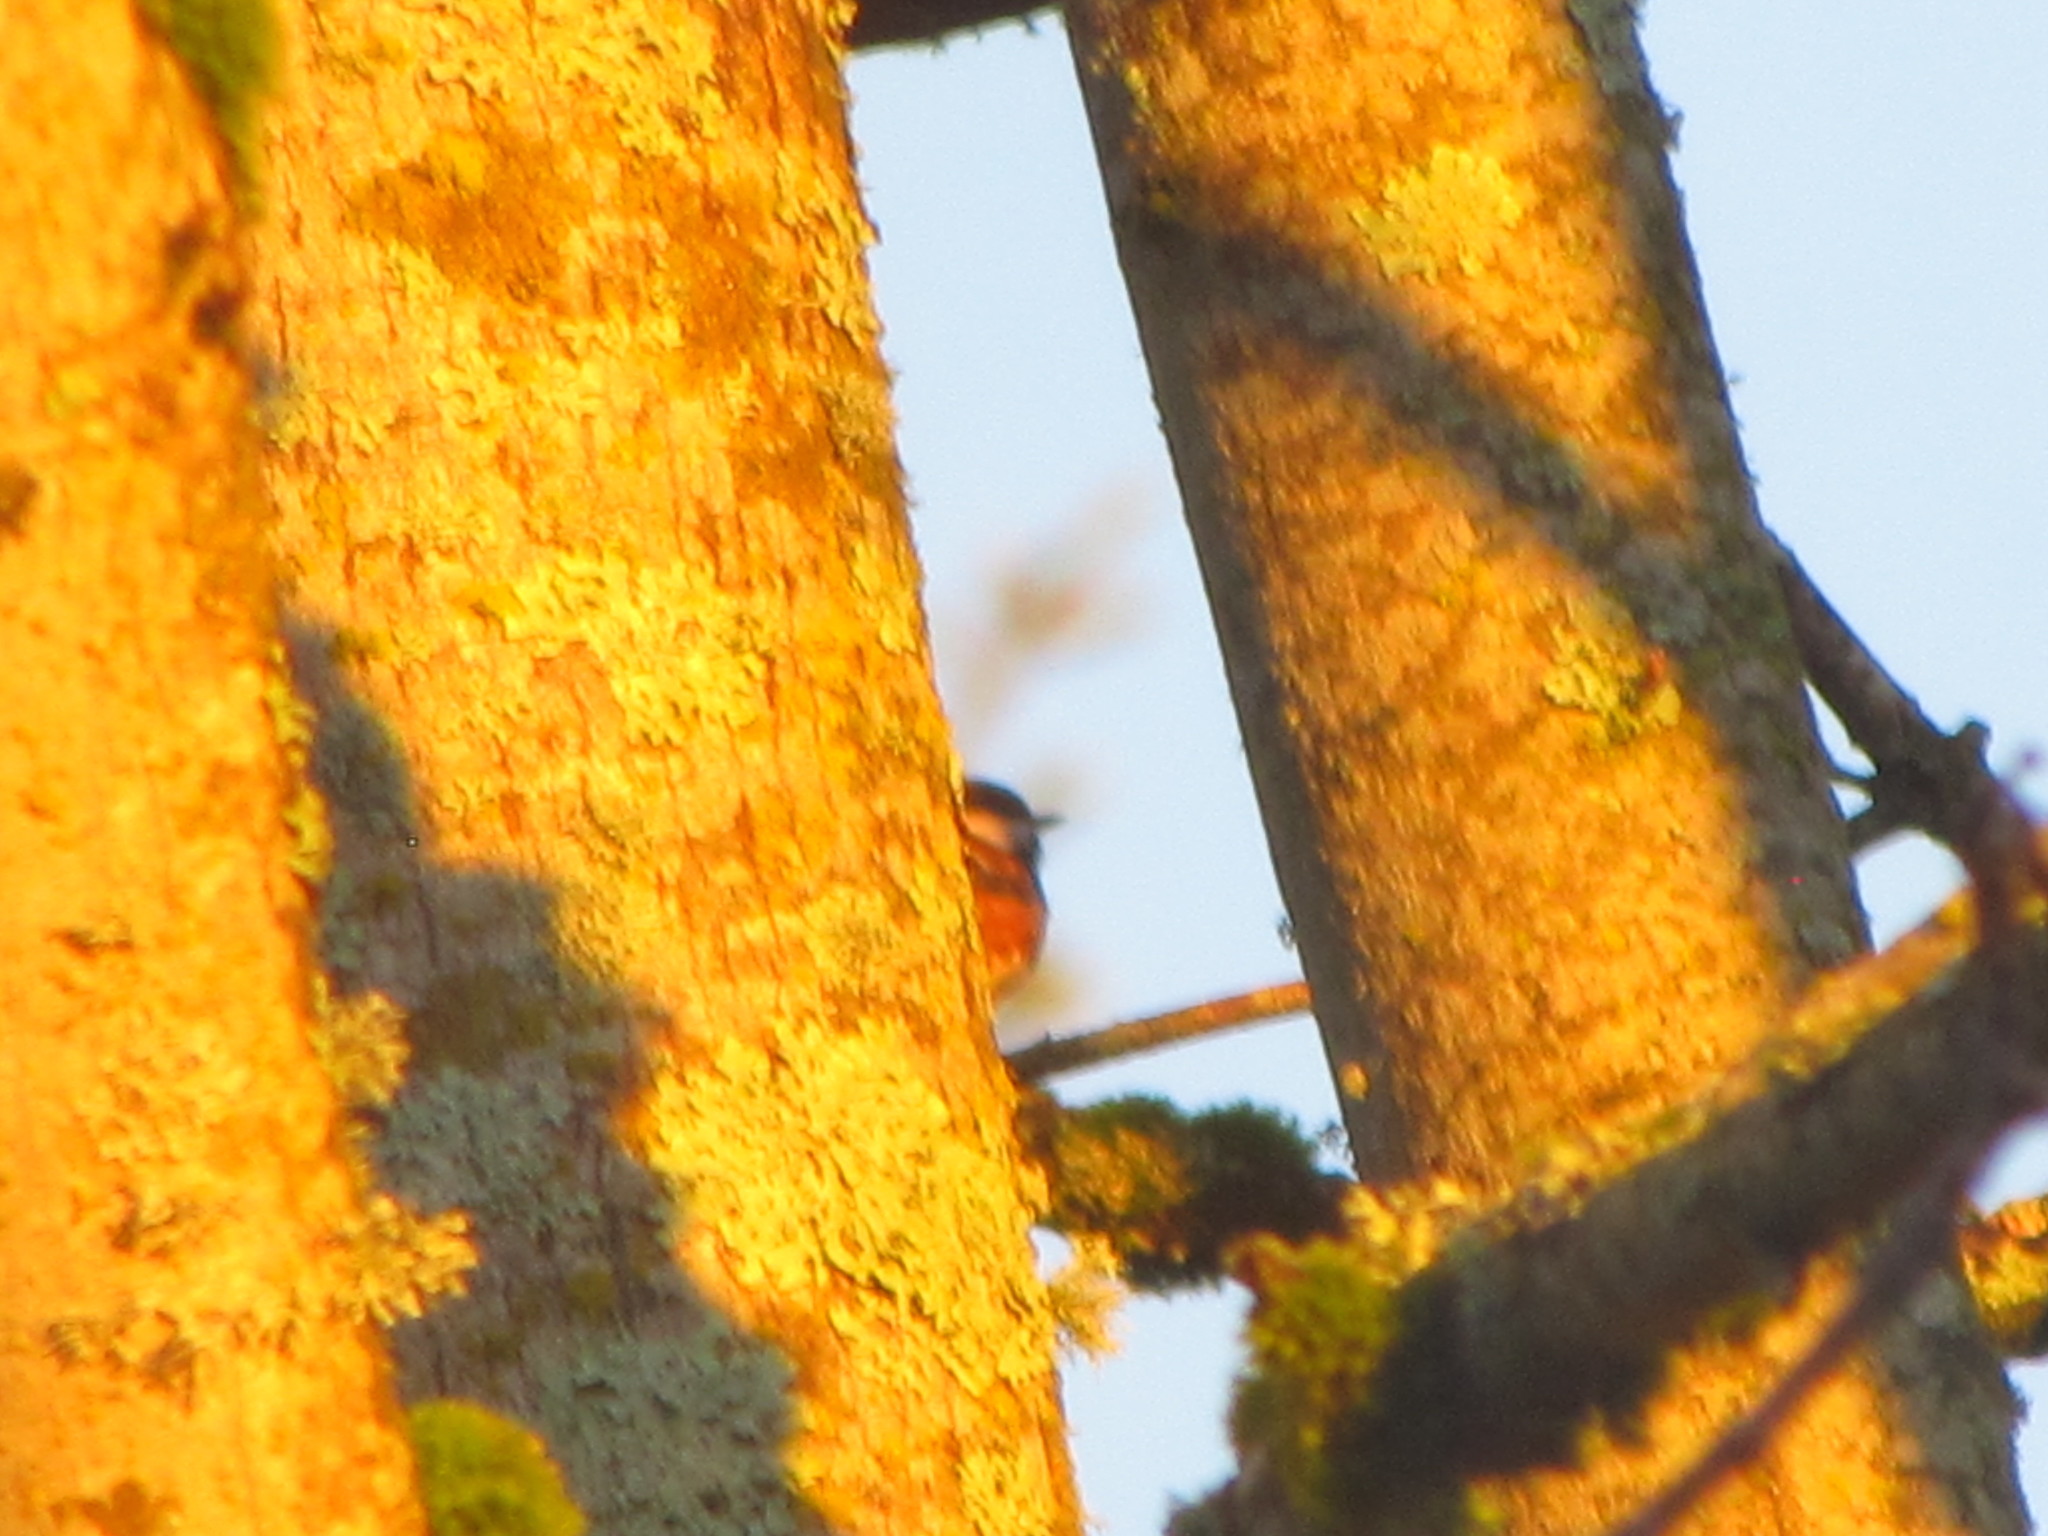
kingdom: Animalia
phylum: Chordata
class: Aves
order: Passeriformes
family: Paridae
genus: Poecile
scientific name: Poecile rufescens
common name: Chestnut-backed chickadee
